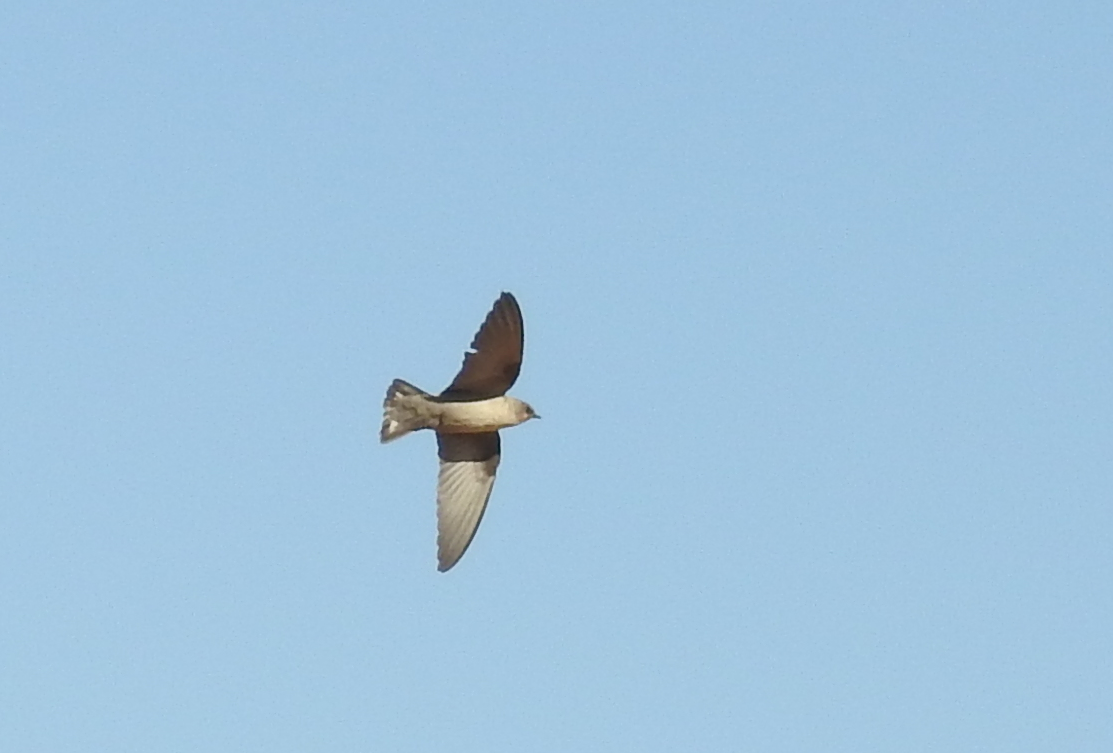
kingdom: Animalia
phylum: Chordata
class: Aves
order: Passeriformes
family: Hirundinidae
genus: Ptyonoprogne
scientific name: Ptyonoprogne fuligula
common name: Rock martin
